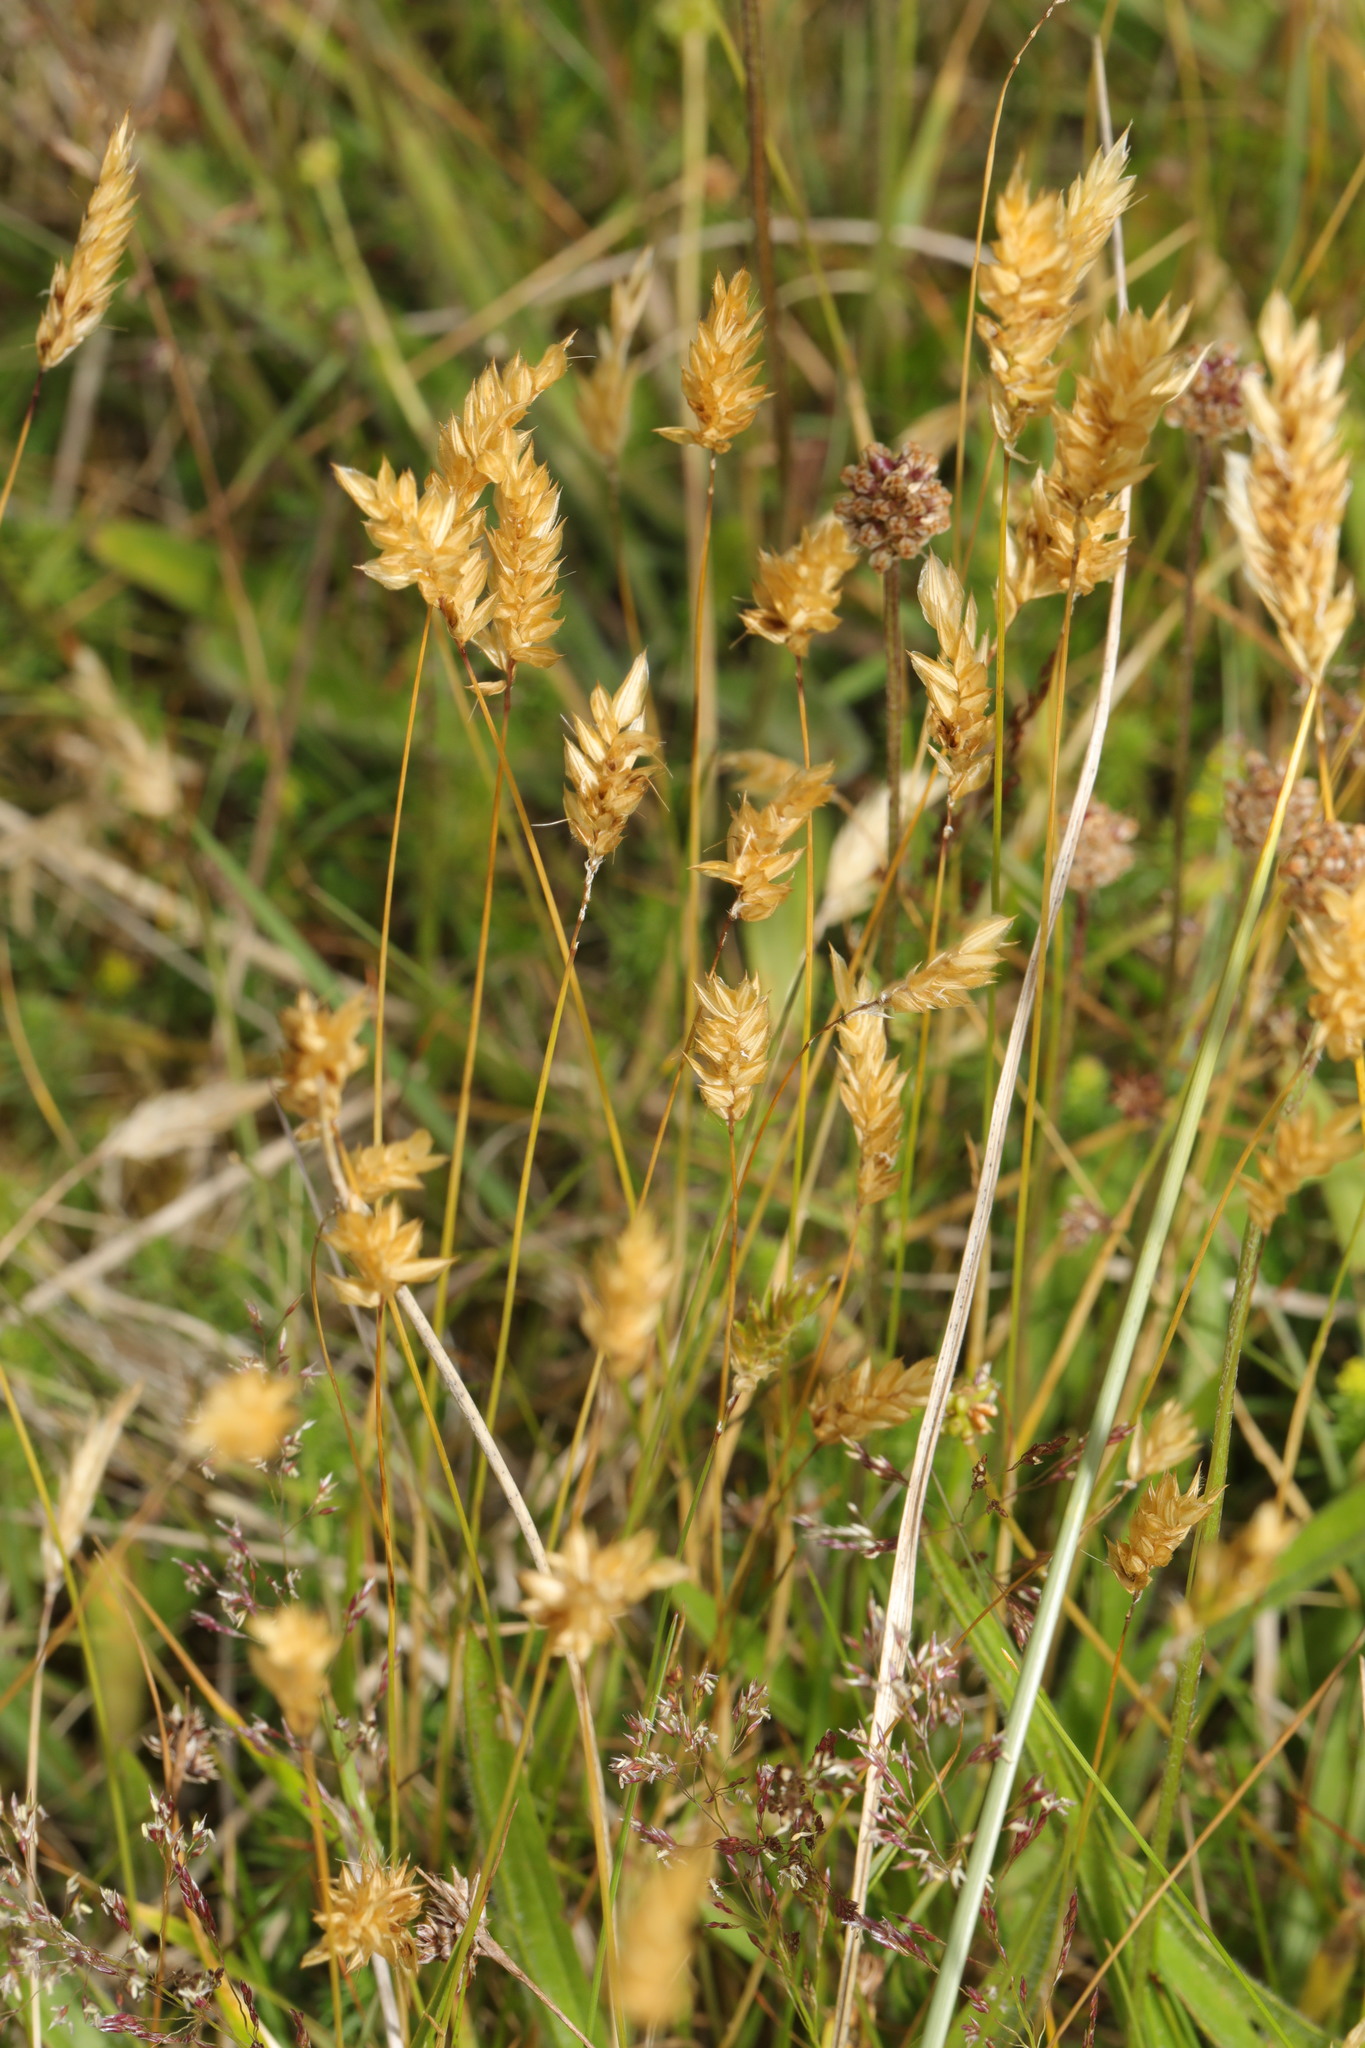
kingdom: Plantae
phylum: Tracheophyta
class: Liliopsida
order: Poales
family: Poaceae
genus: Anthoxanthum
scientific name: Anthoxanthum odoratum
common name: Sweet vernalgrass
